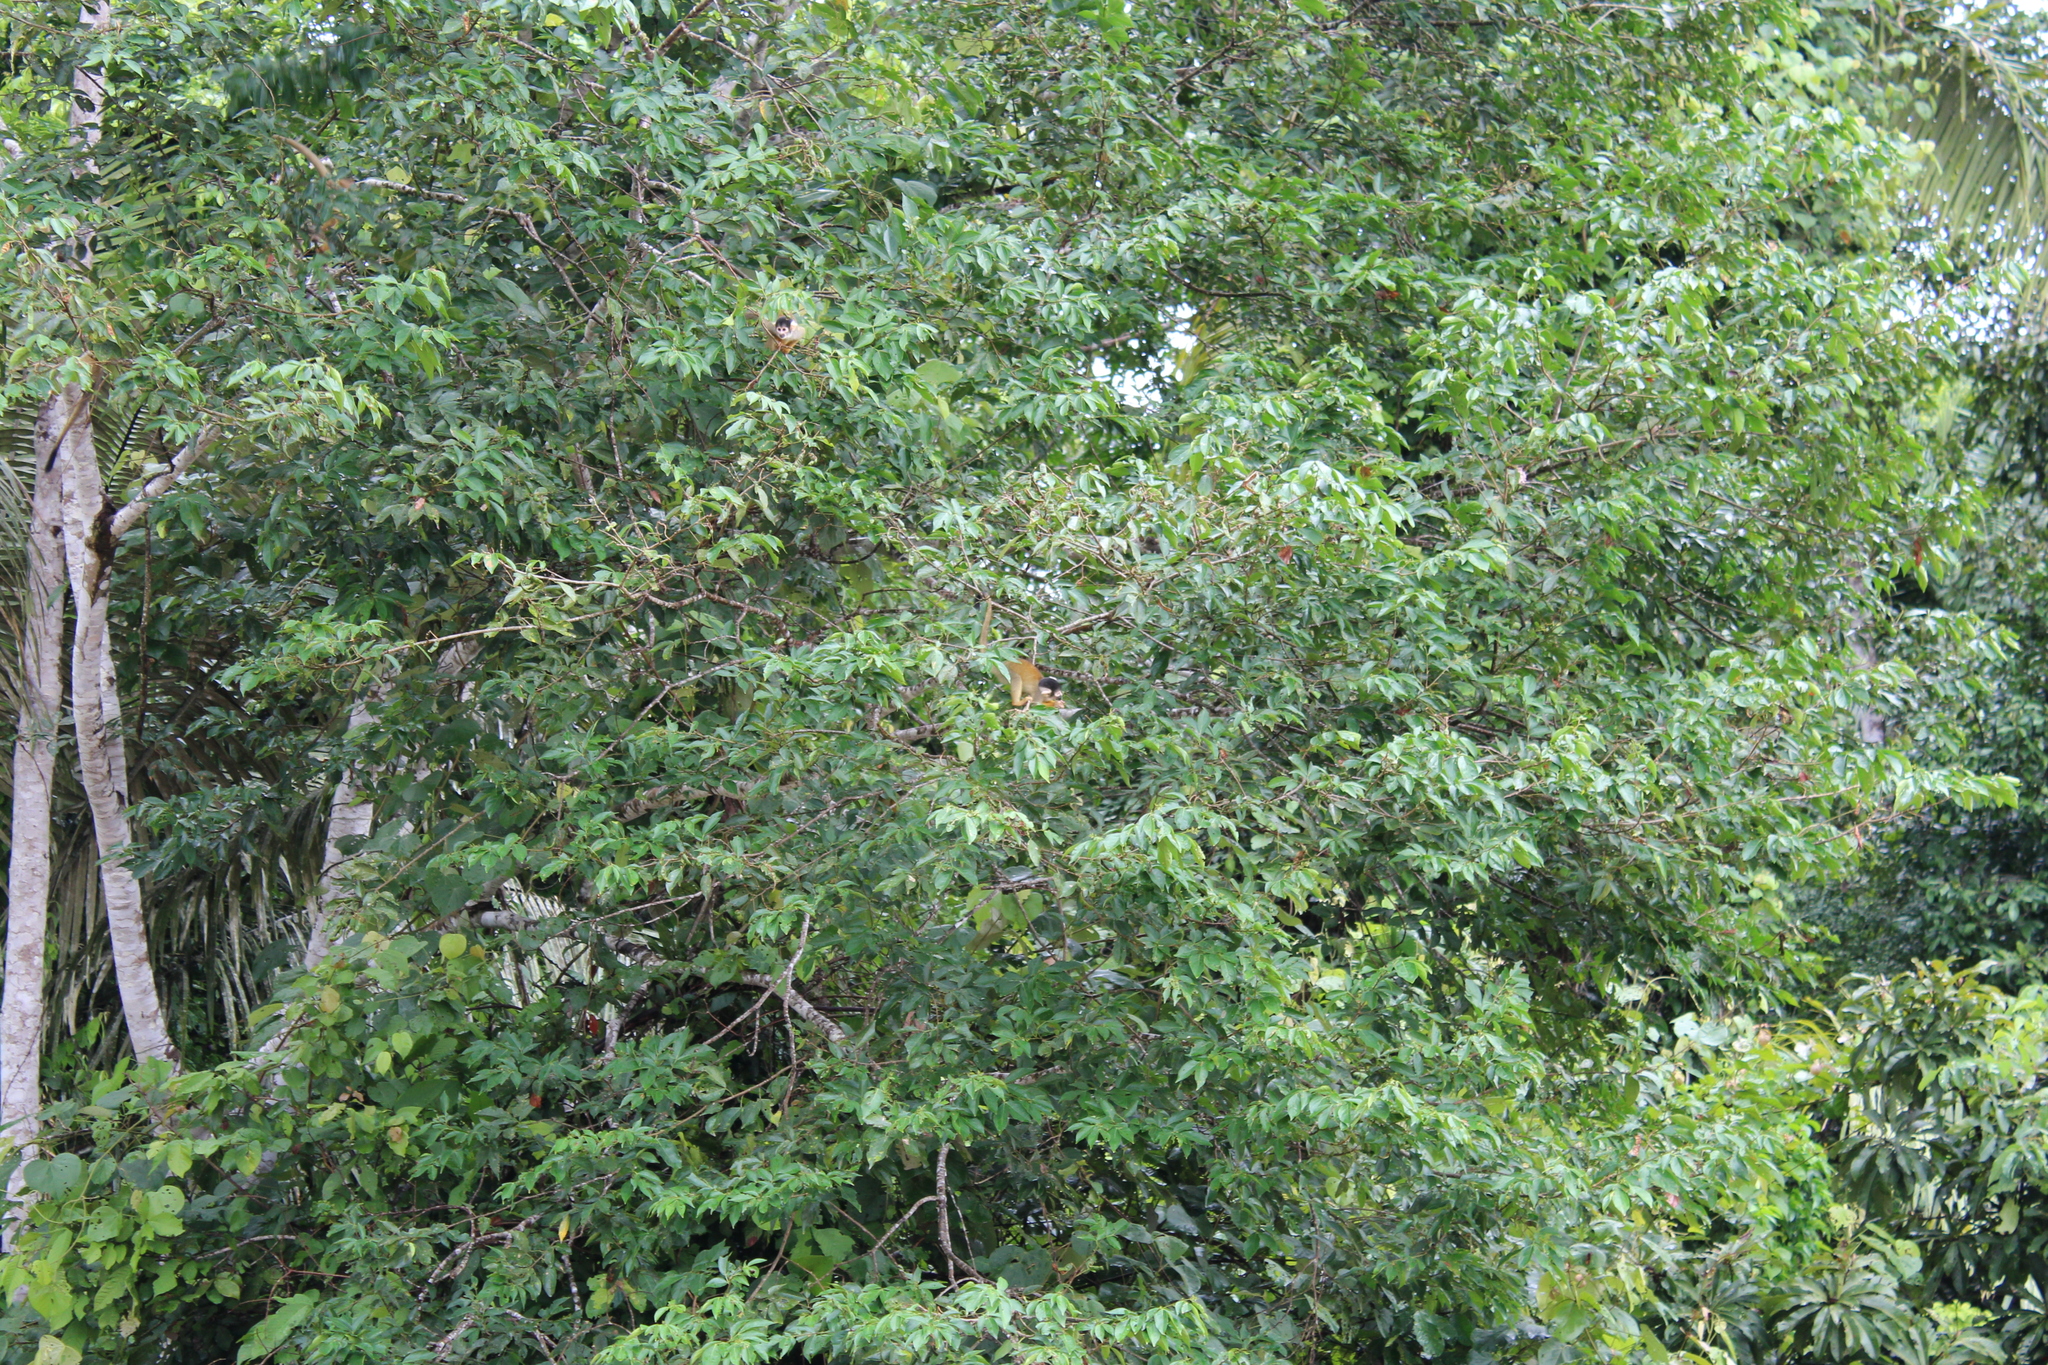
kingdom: Animalia
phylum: Chordata
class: Mammalia
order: Primates
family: Cebidae
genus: Saimiri
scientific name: Saimiri boliviensis
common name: Black-capped squirrel monkey
